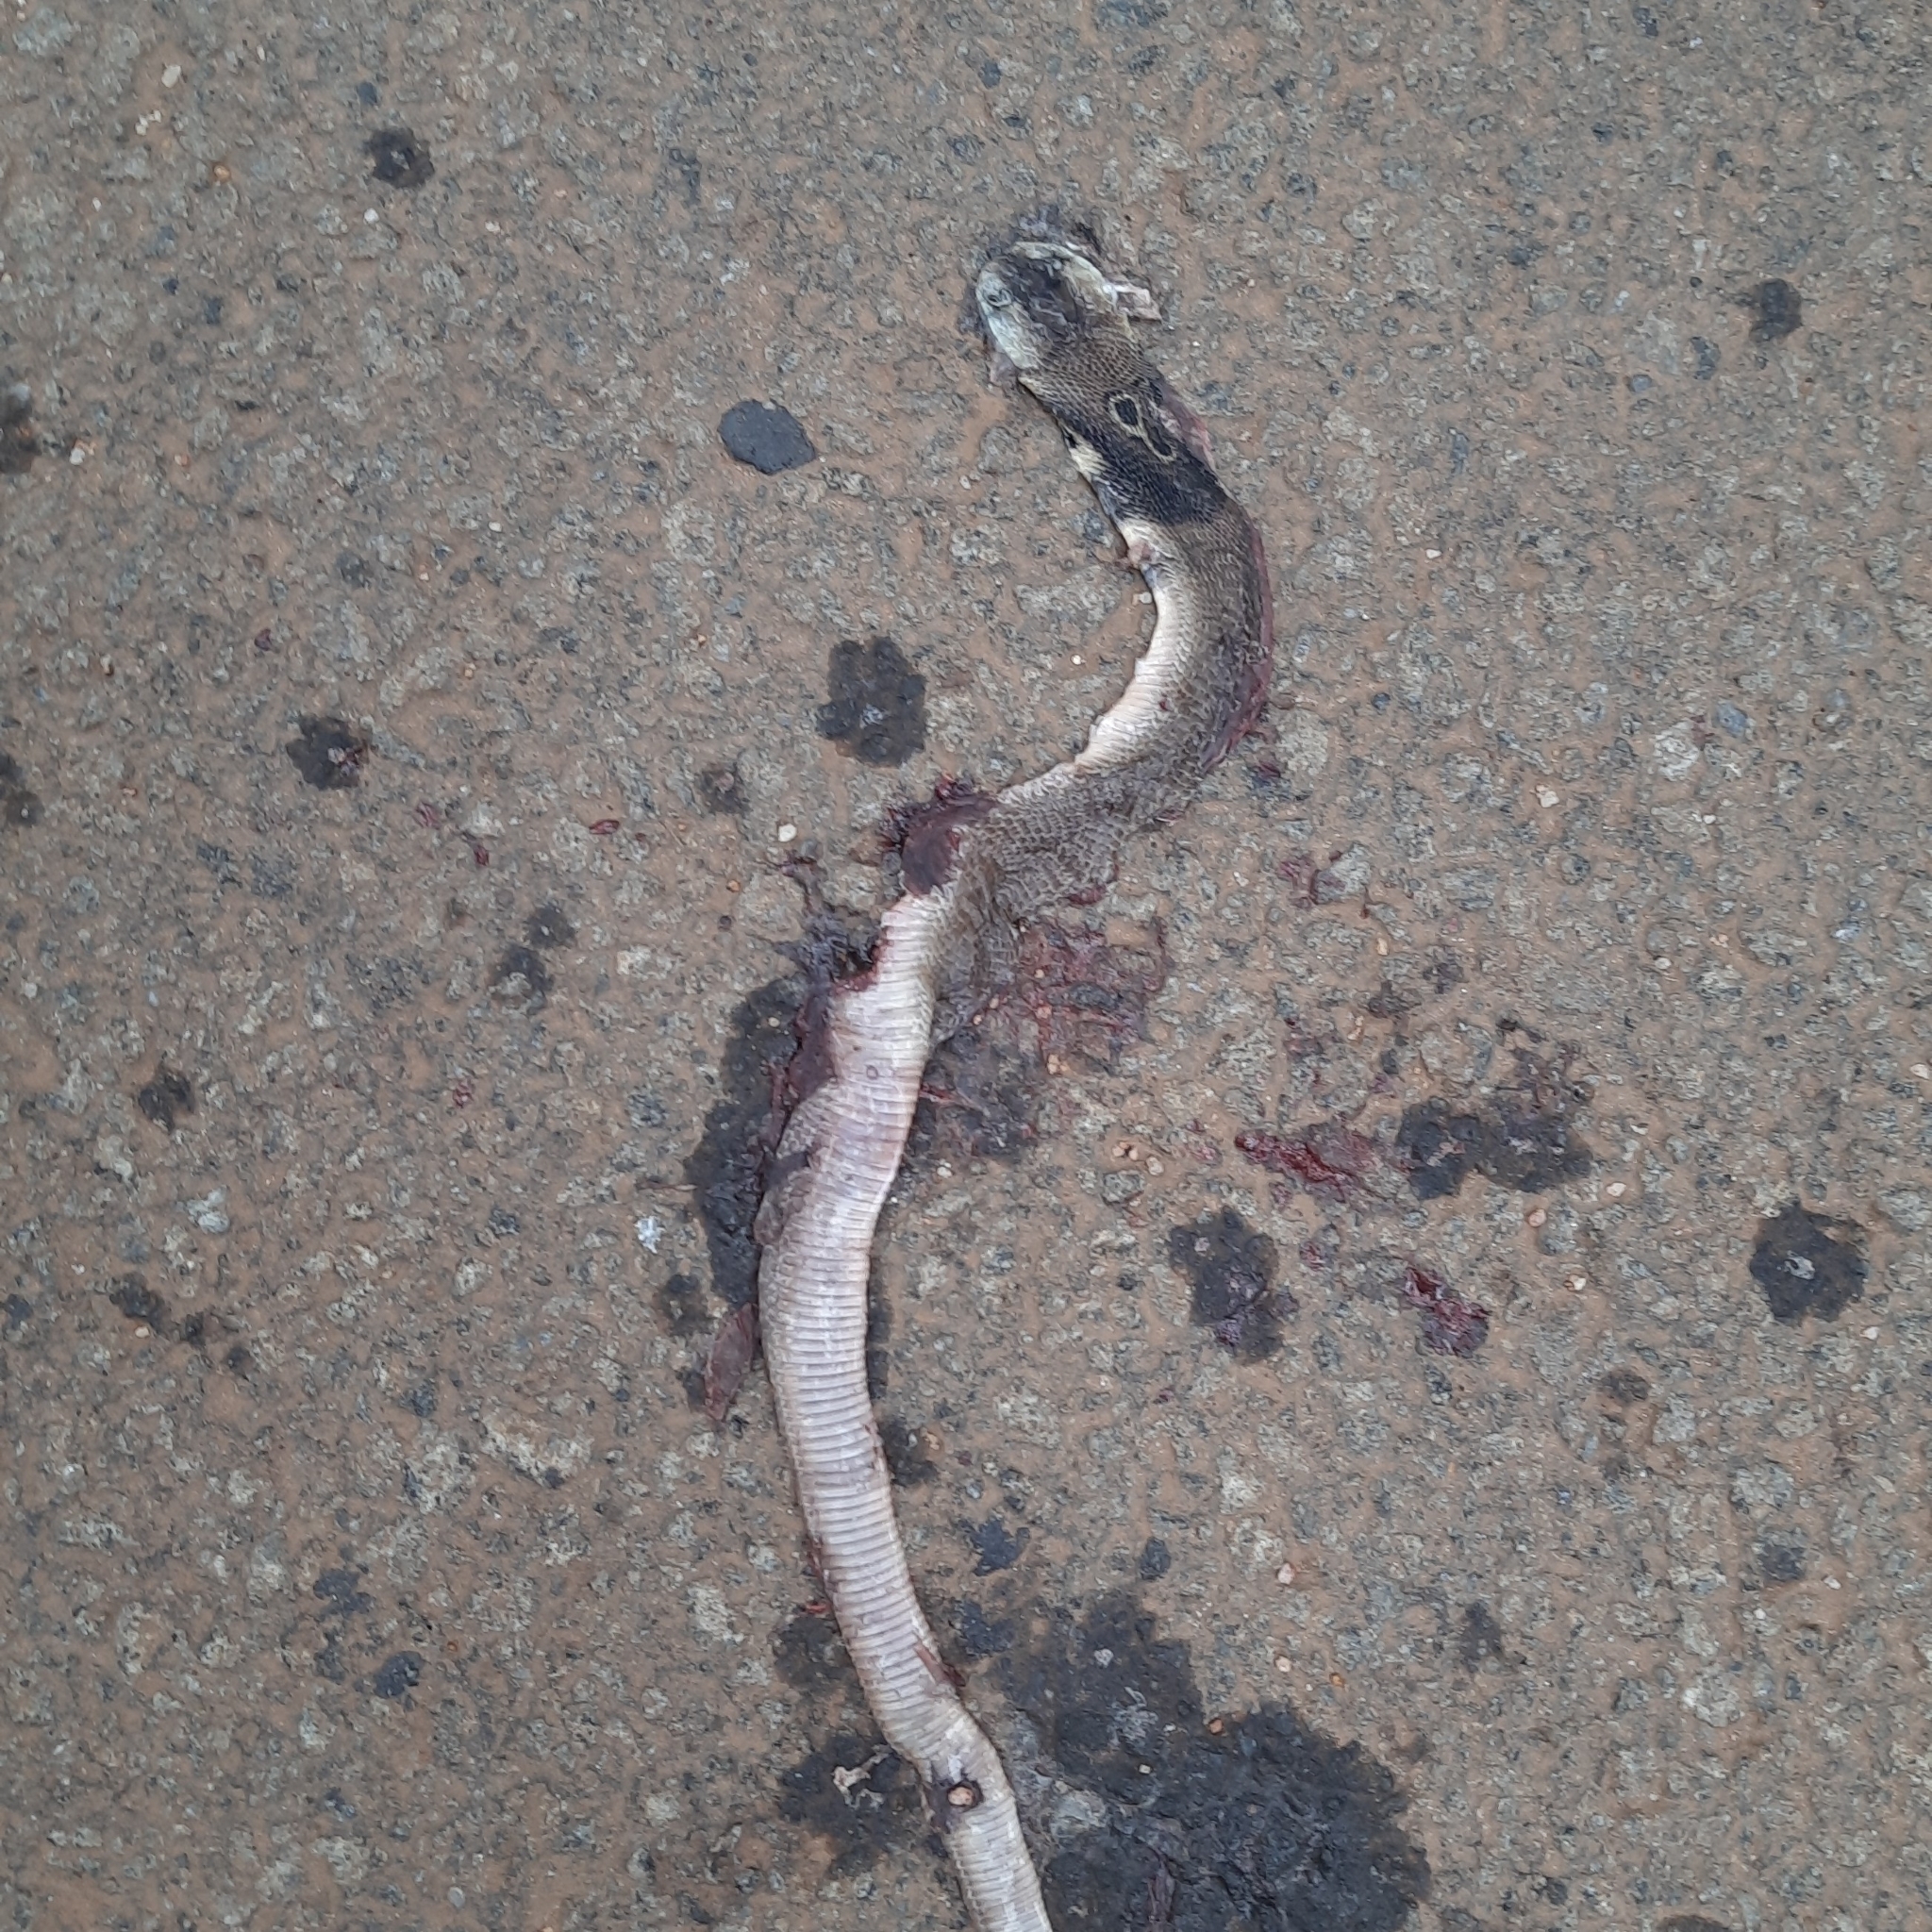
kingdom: Animalia
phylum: Chordata
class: Squamata
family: Elapidae
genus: Naja
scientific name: Naja naja
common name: Indian cobra
